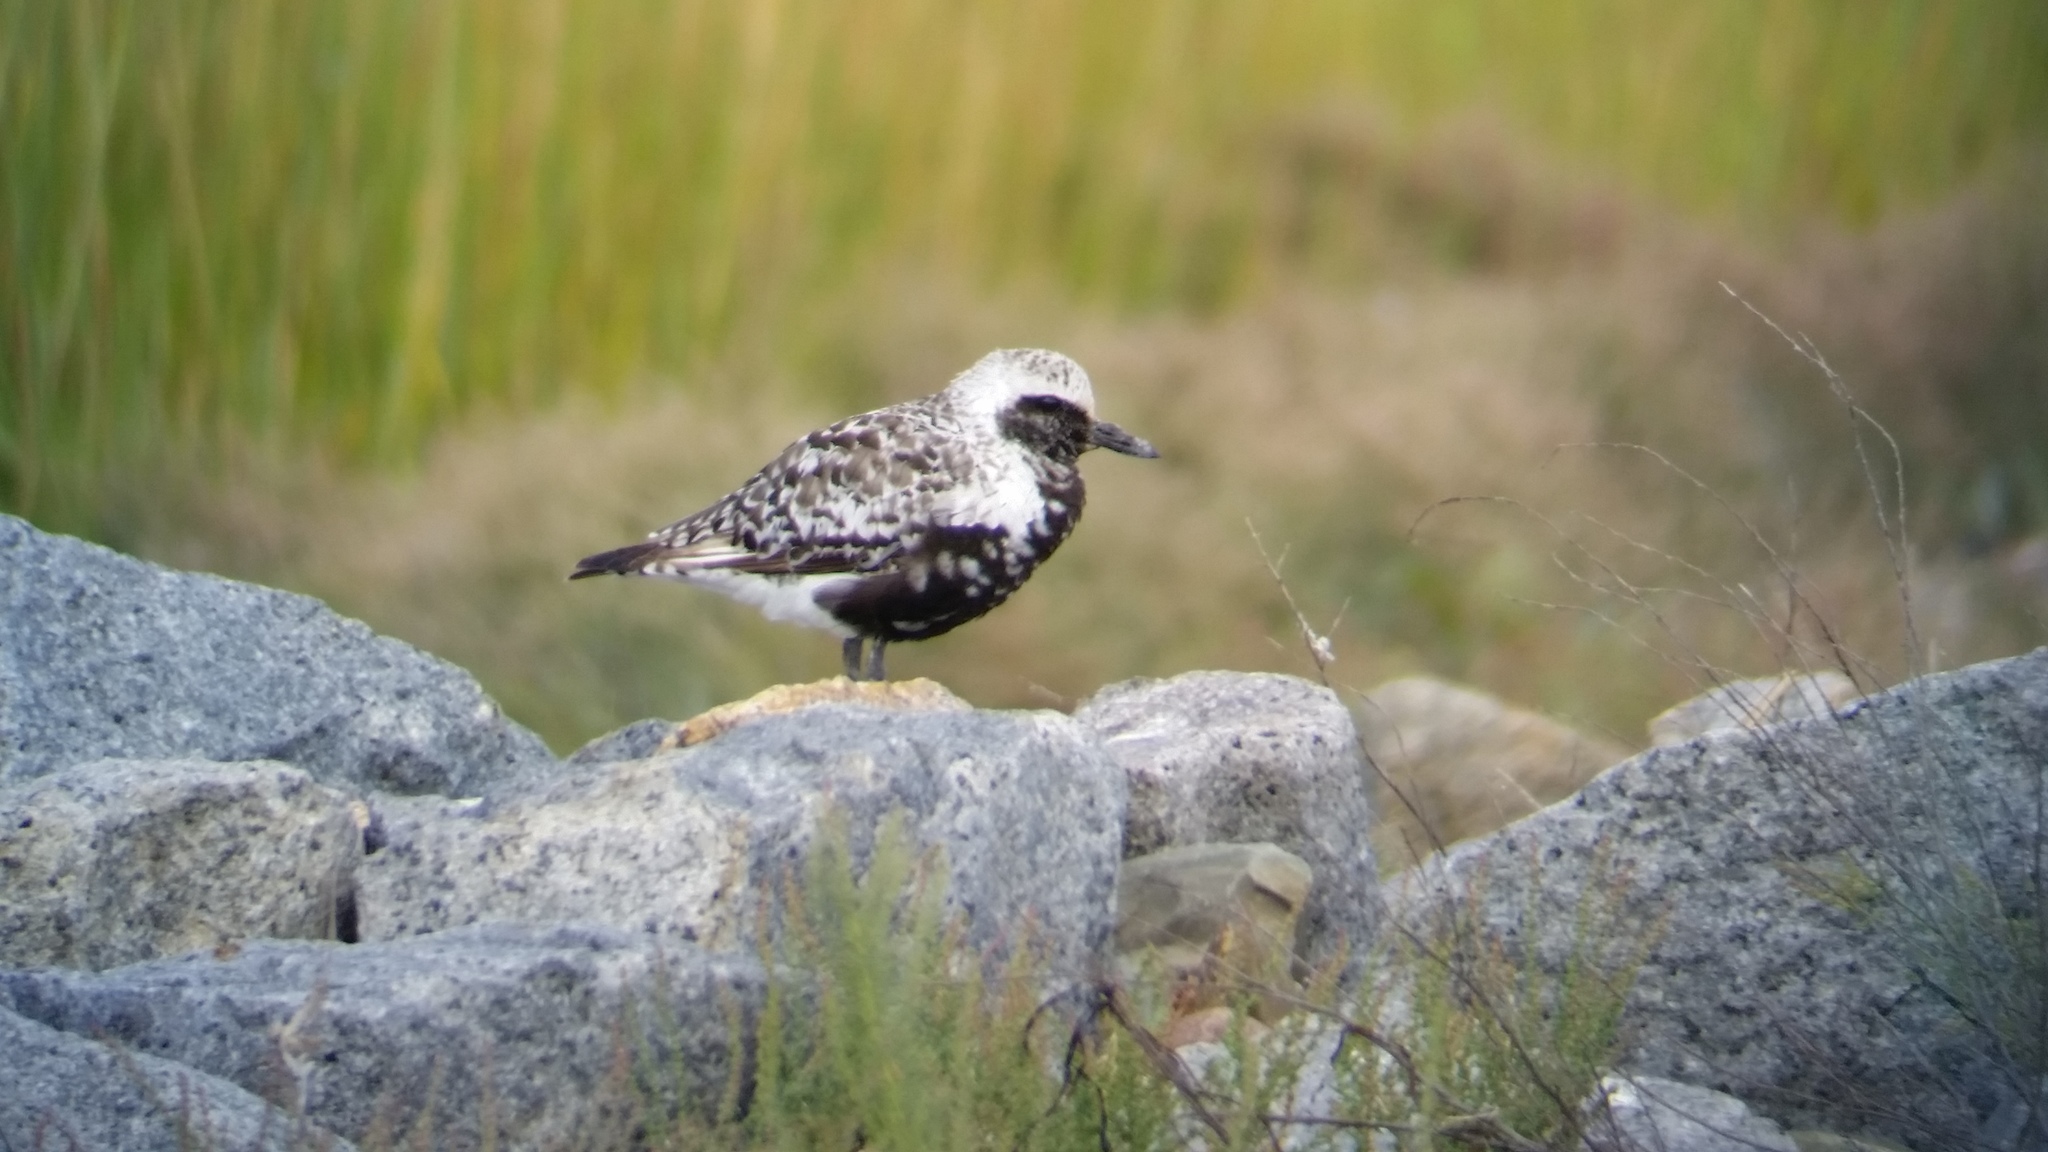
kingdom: Animalia
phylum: Chordata
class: Aves
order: Charadriiformes
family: Charadriidae
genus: Pluvialis
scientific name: Pluvialis squatarola
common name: Grey plover
